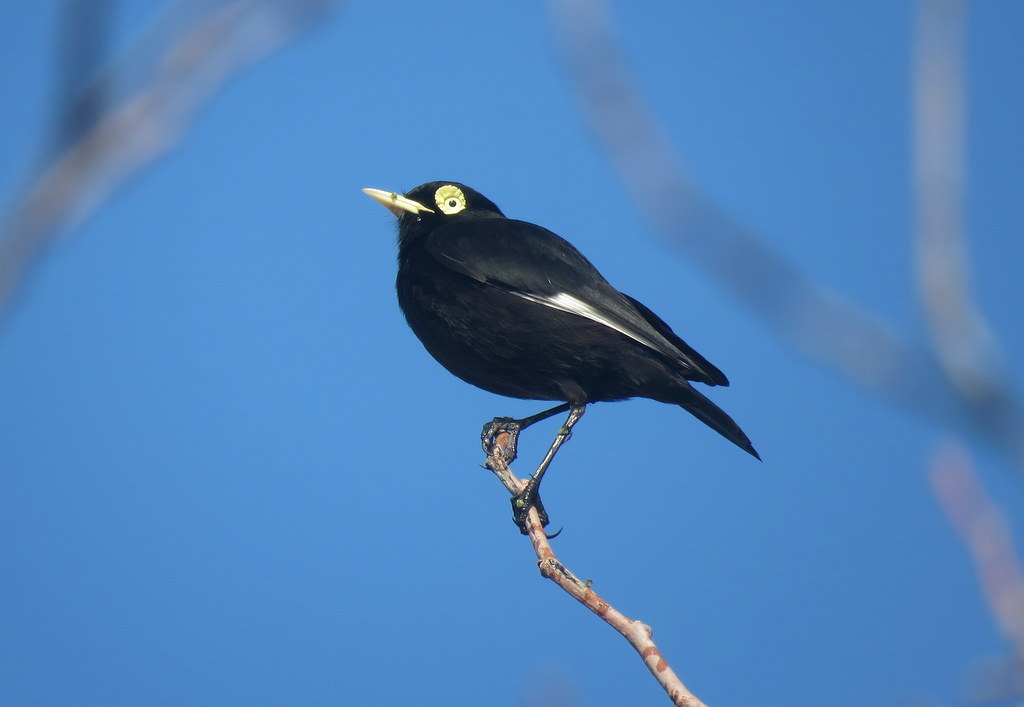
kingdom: Animalia
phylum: Chordata
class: Aves
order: Passeriformes
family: Tyrannidae
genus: Hymenops
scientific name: Hymenops perspicillatus
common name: Spectacled tyrant
